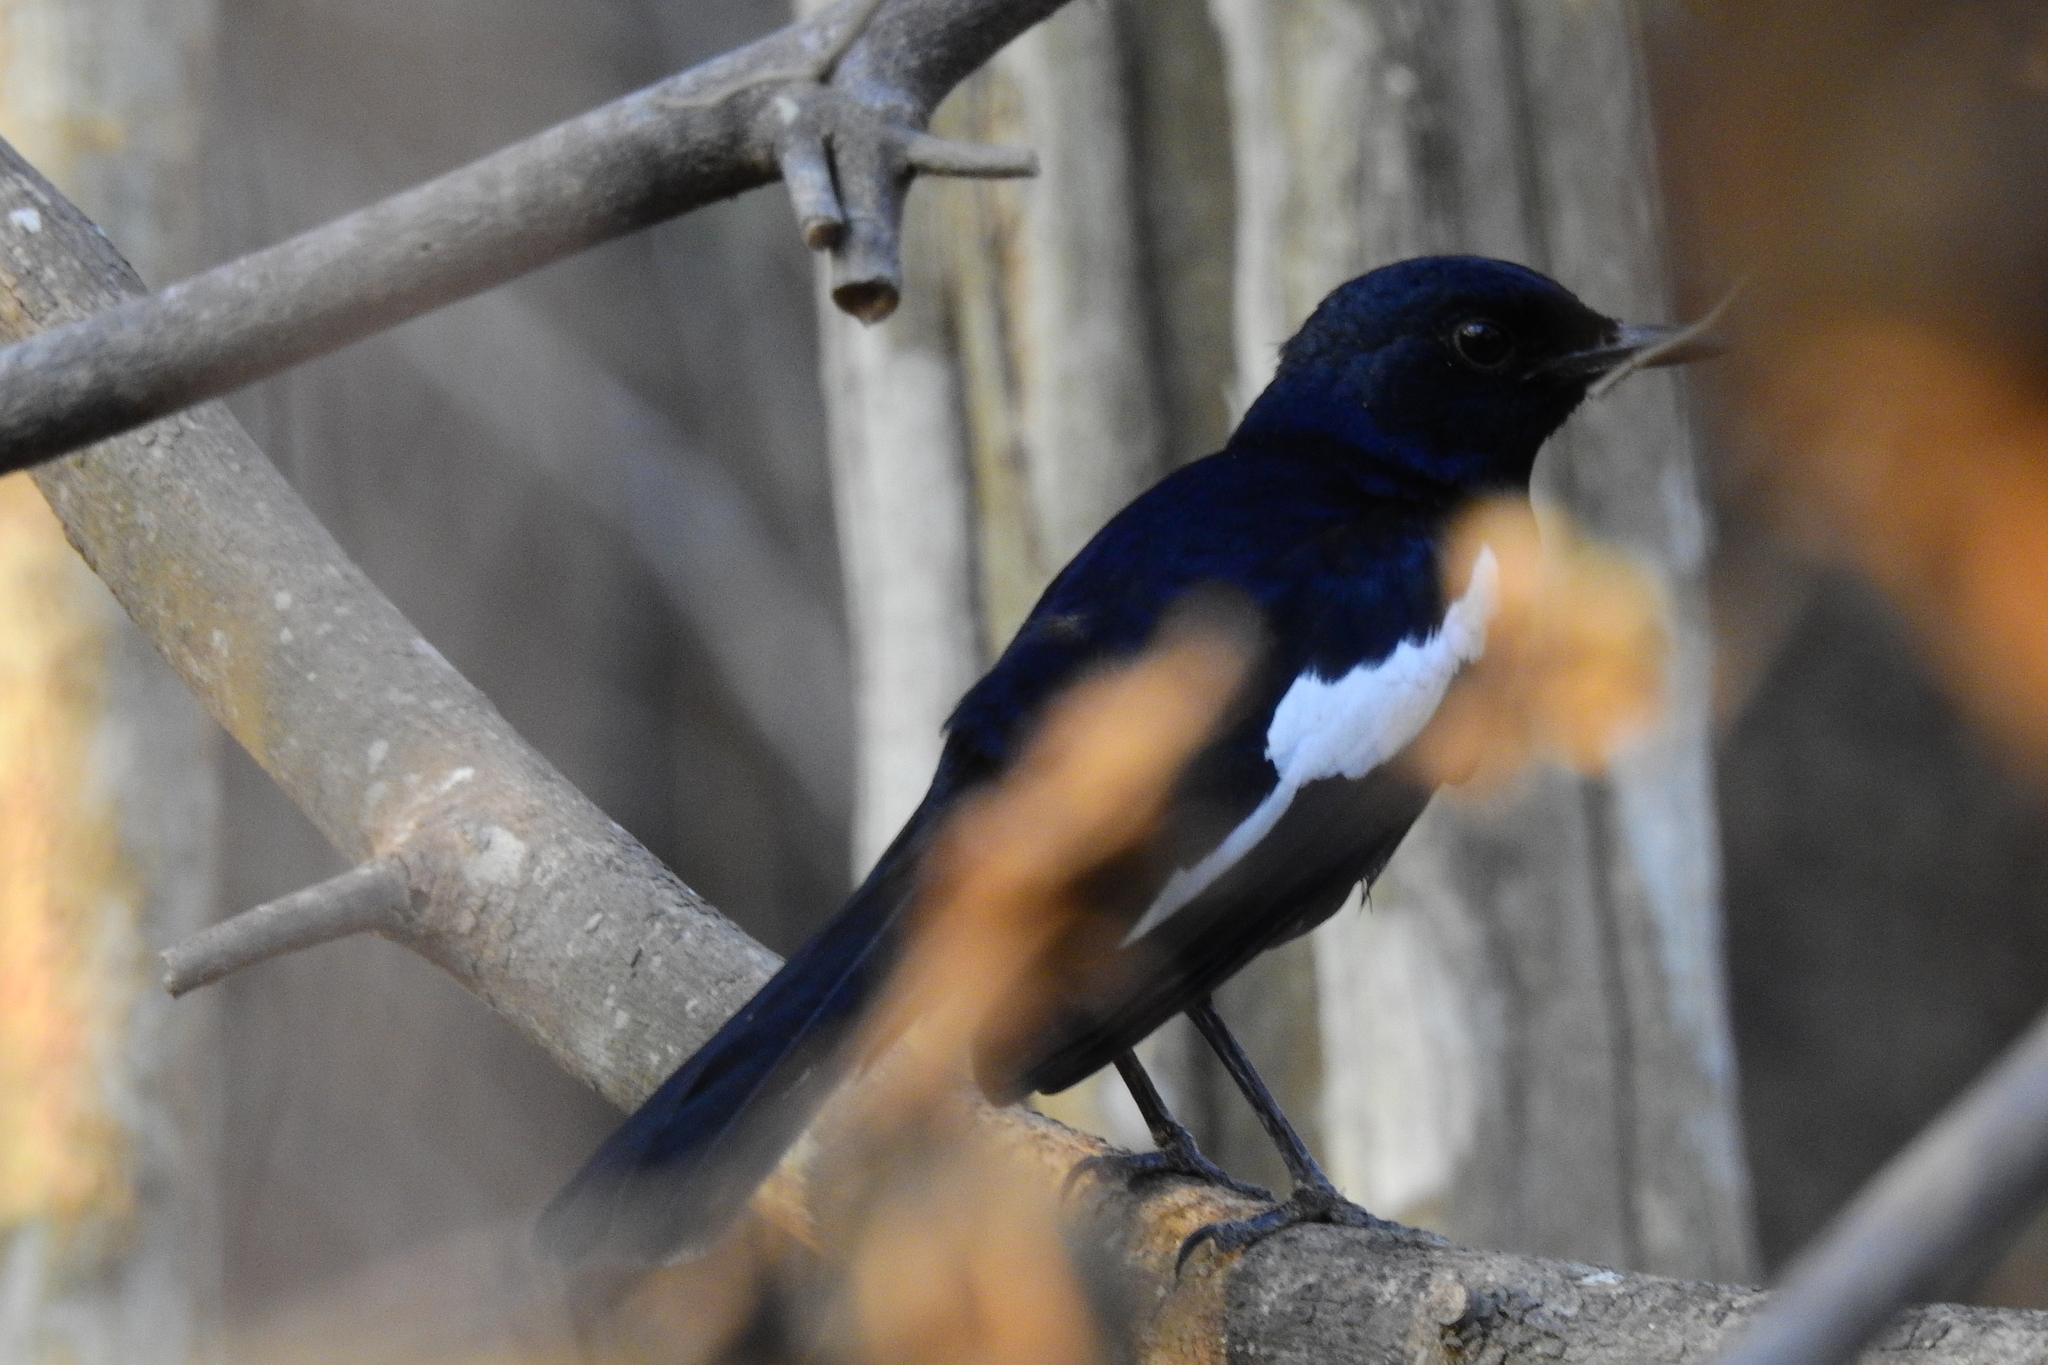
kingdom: Animalia
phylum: Chordata
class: Aves
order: Passeriformes
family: Muscicapidae
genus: Copsychus
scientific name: Copsychus saularis
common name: Oriental magpie-robin
